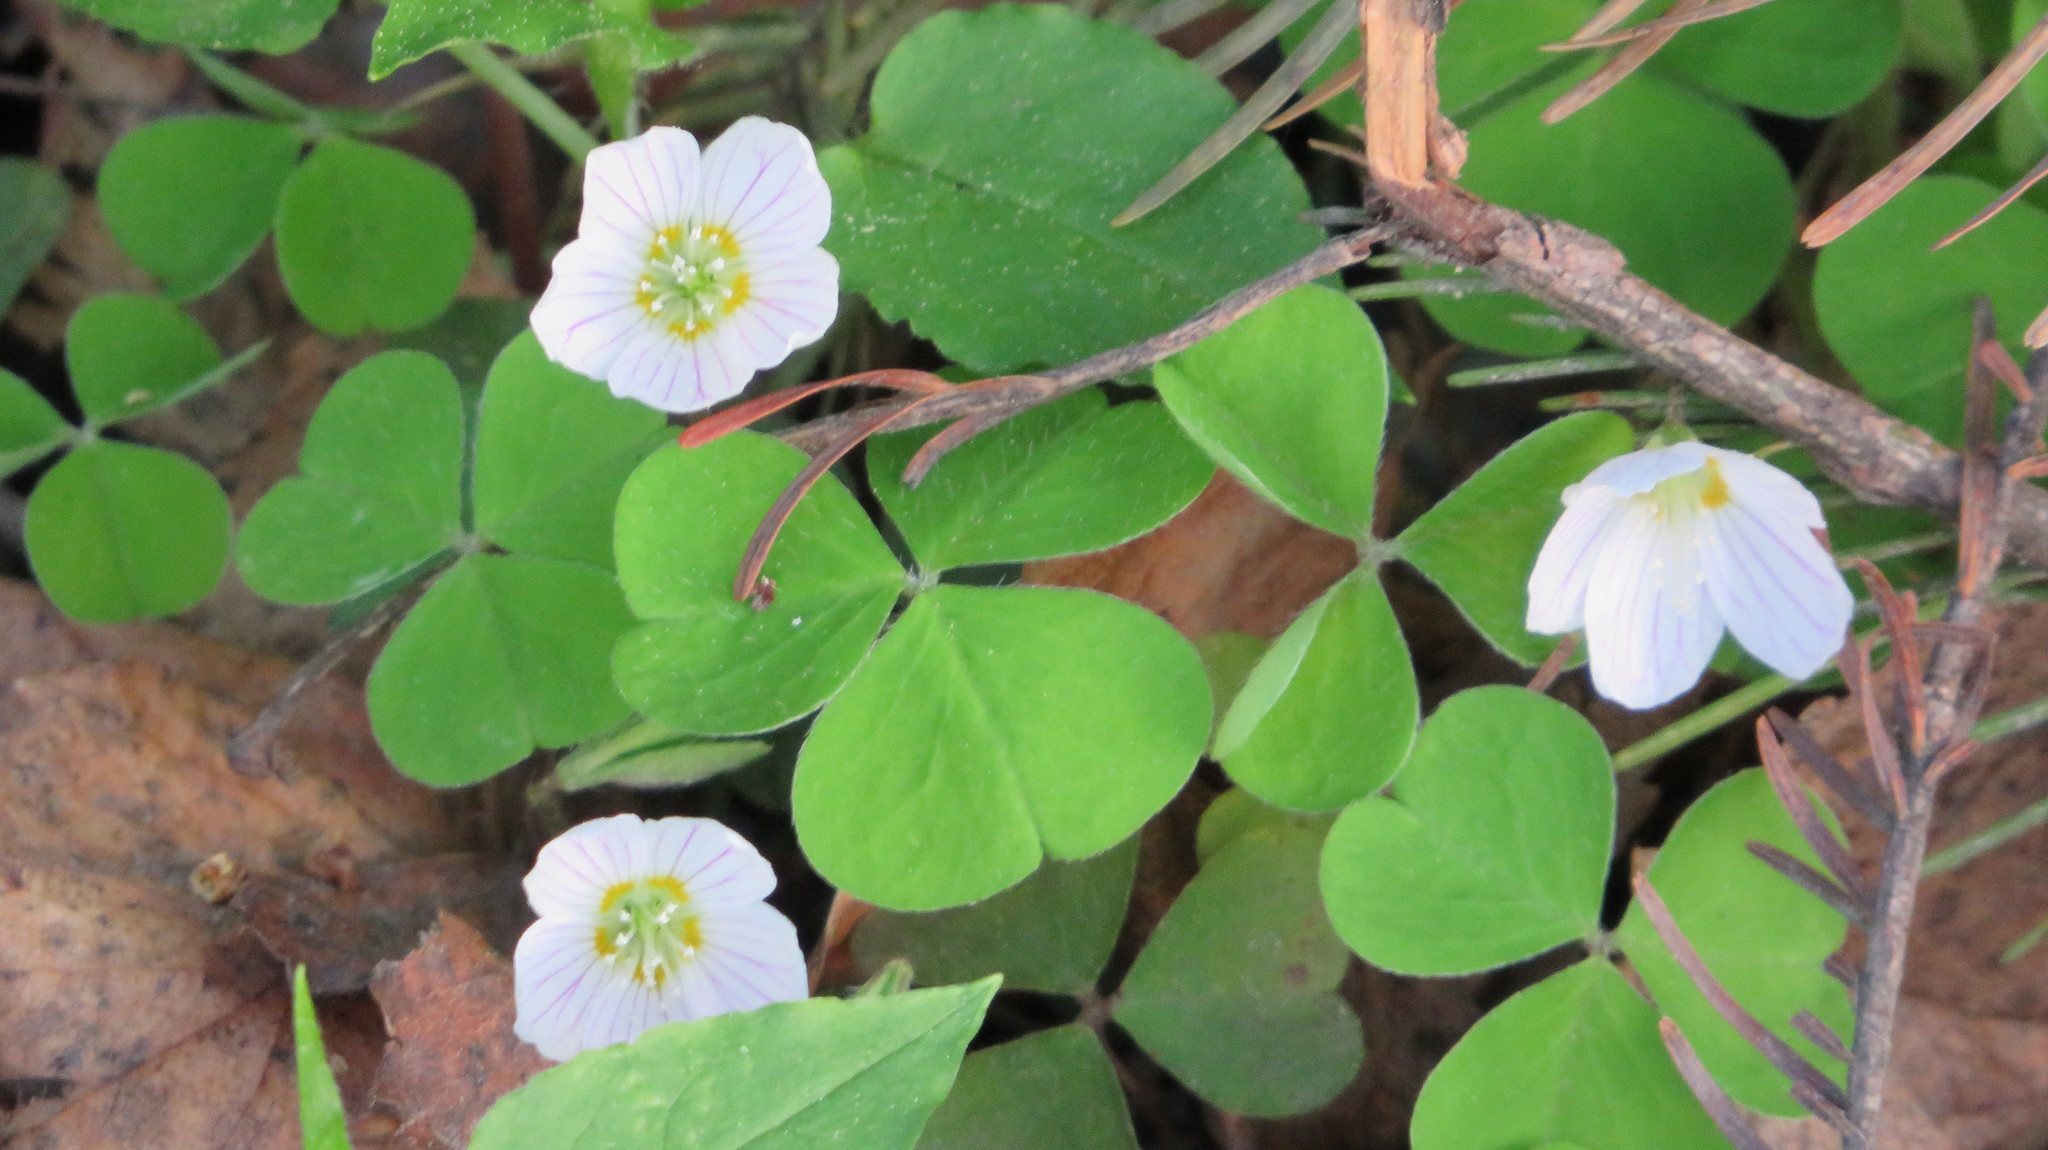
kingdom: Plantae
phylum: Tracheophyta
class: Magnoliopsida
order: Oxalidales
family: Oxalidaceae
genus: Oxalis
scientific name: Oxalis acetosella
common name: Wood-sorrel
